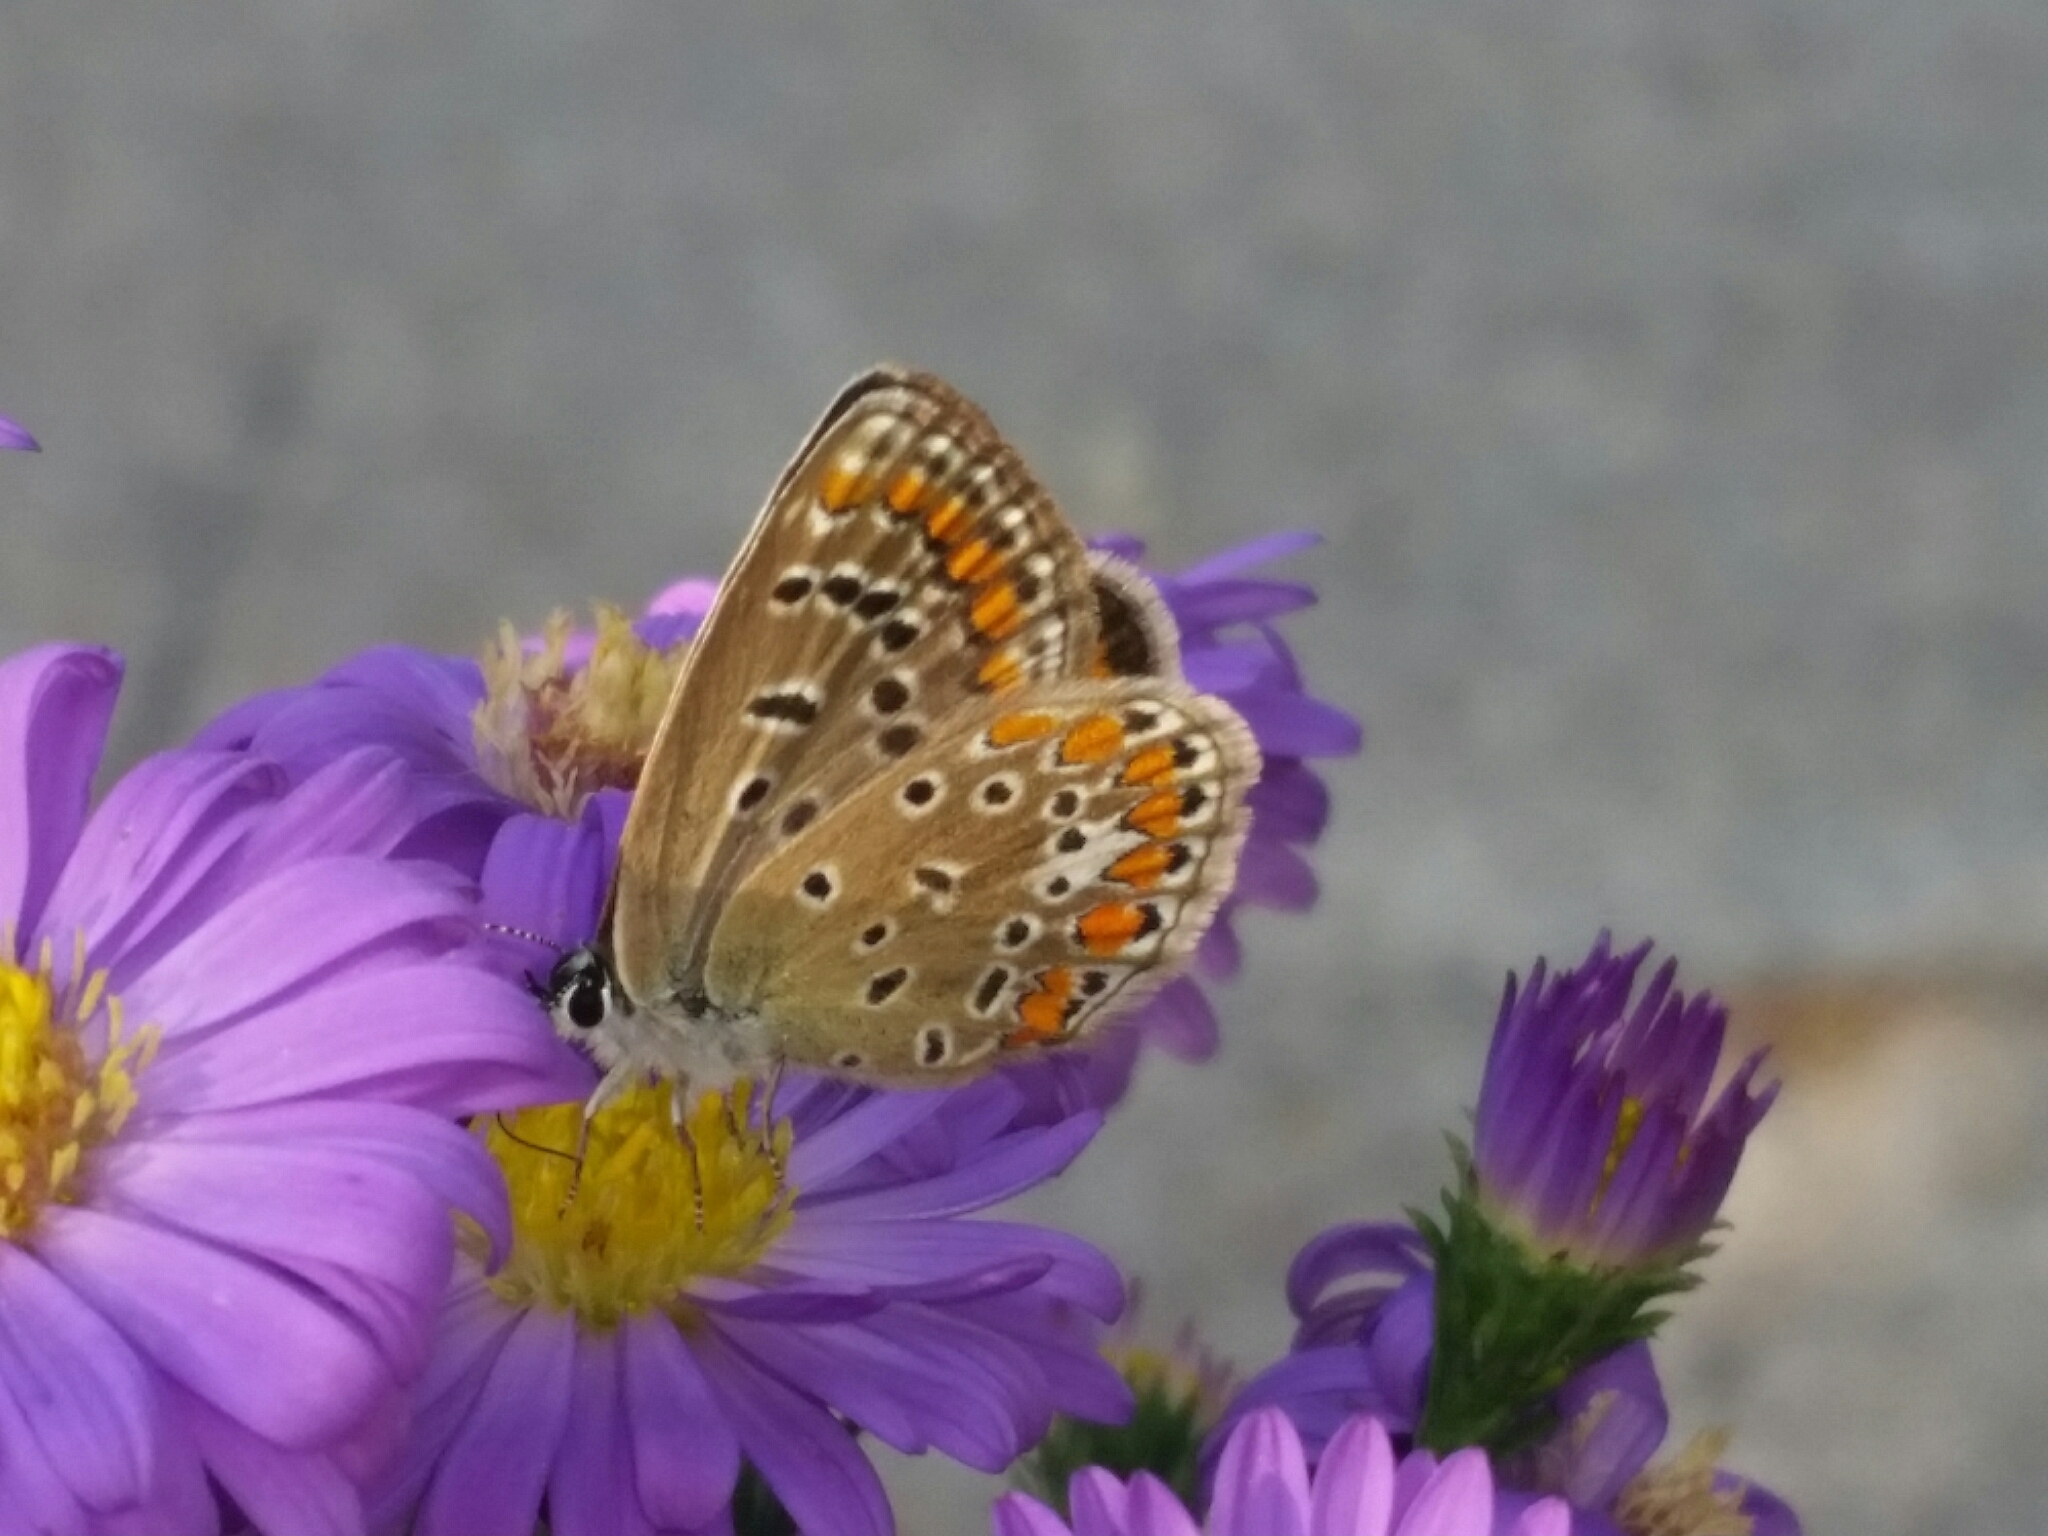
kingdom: Animalia
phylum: Arthropoda
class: Insecta
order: Lepidoptera
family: Lycaenidae
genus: Polyommatus
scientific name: Polyommatus icarus
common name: Common blue
